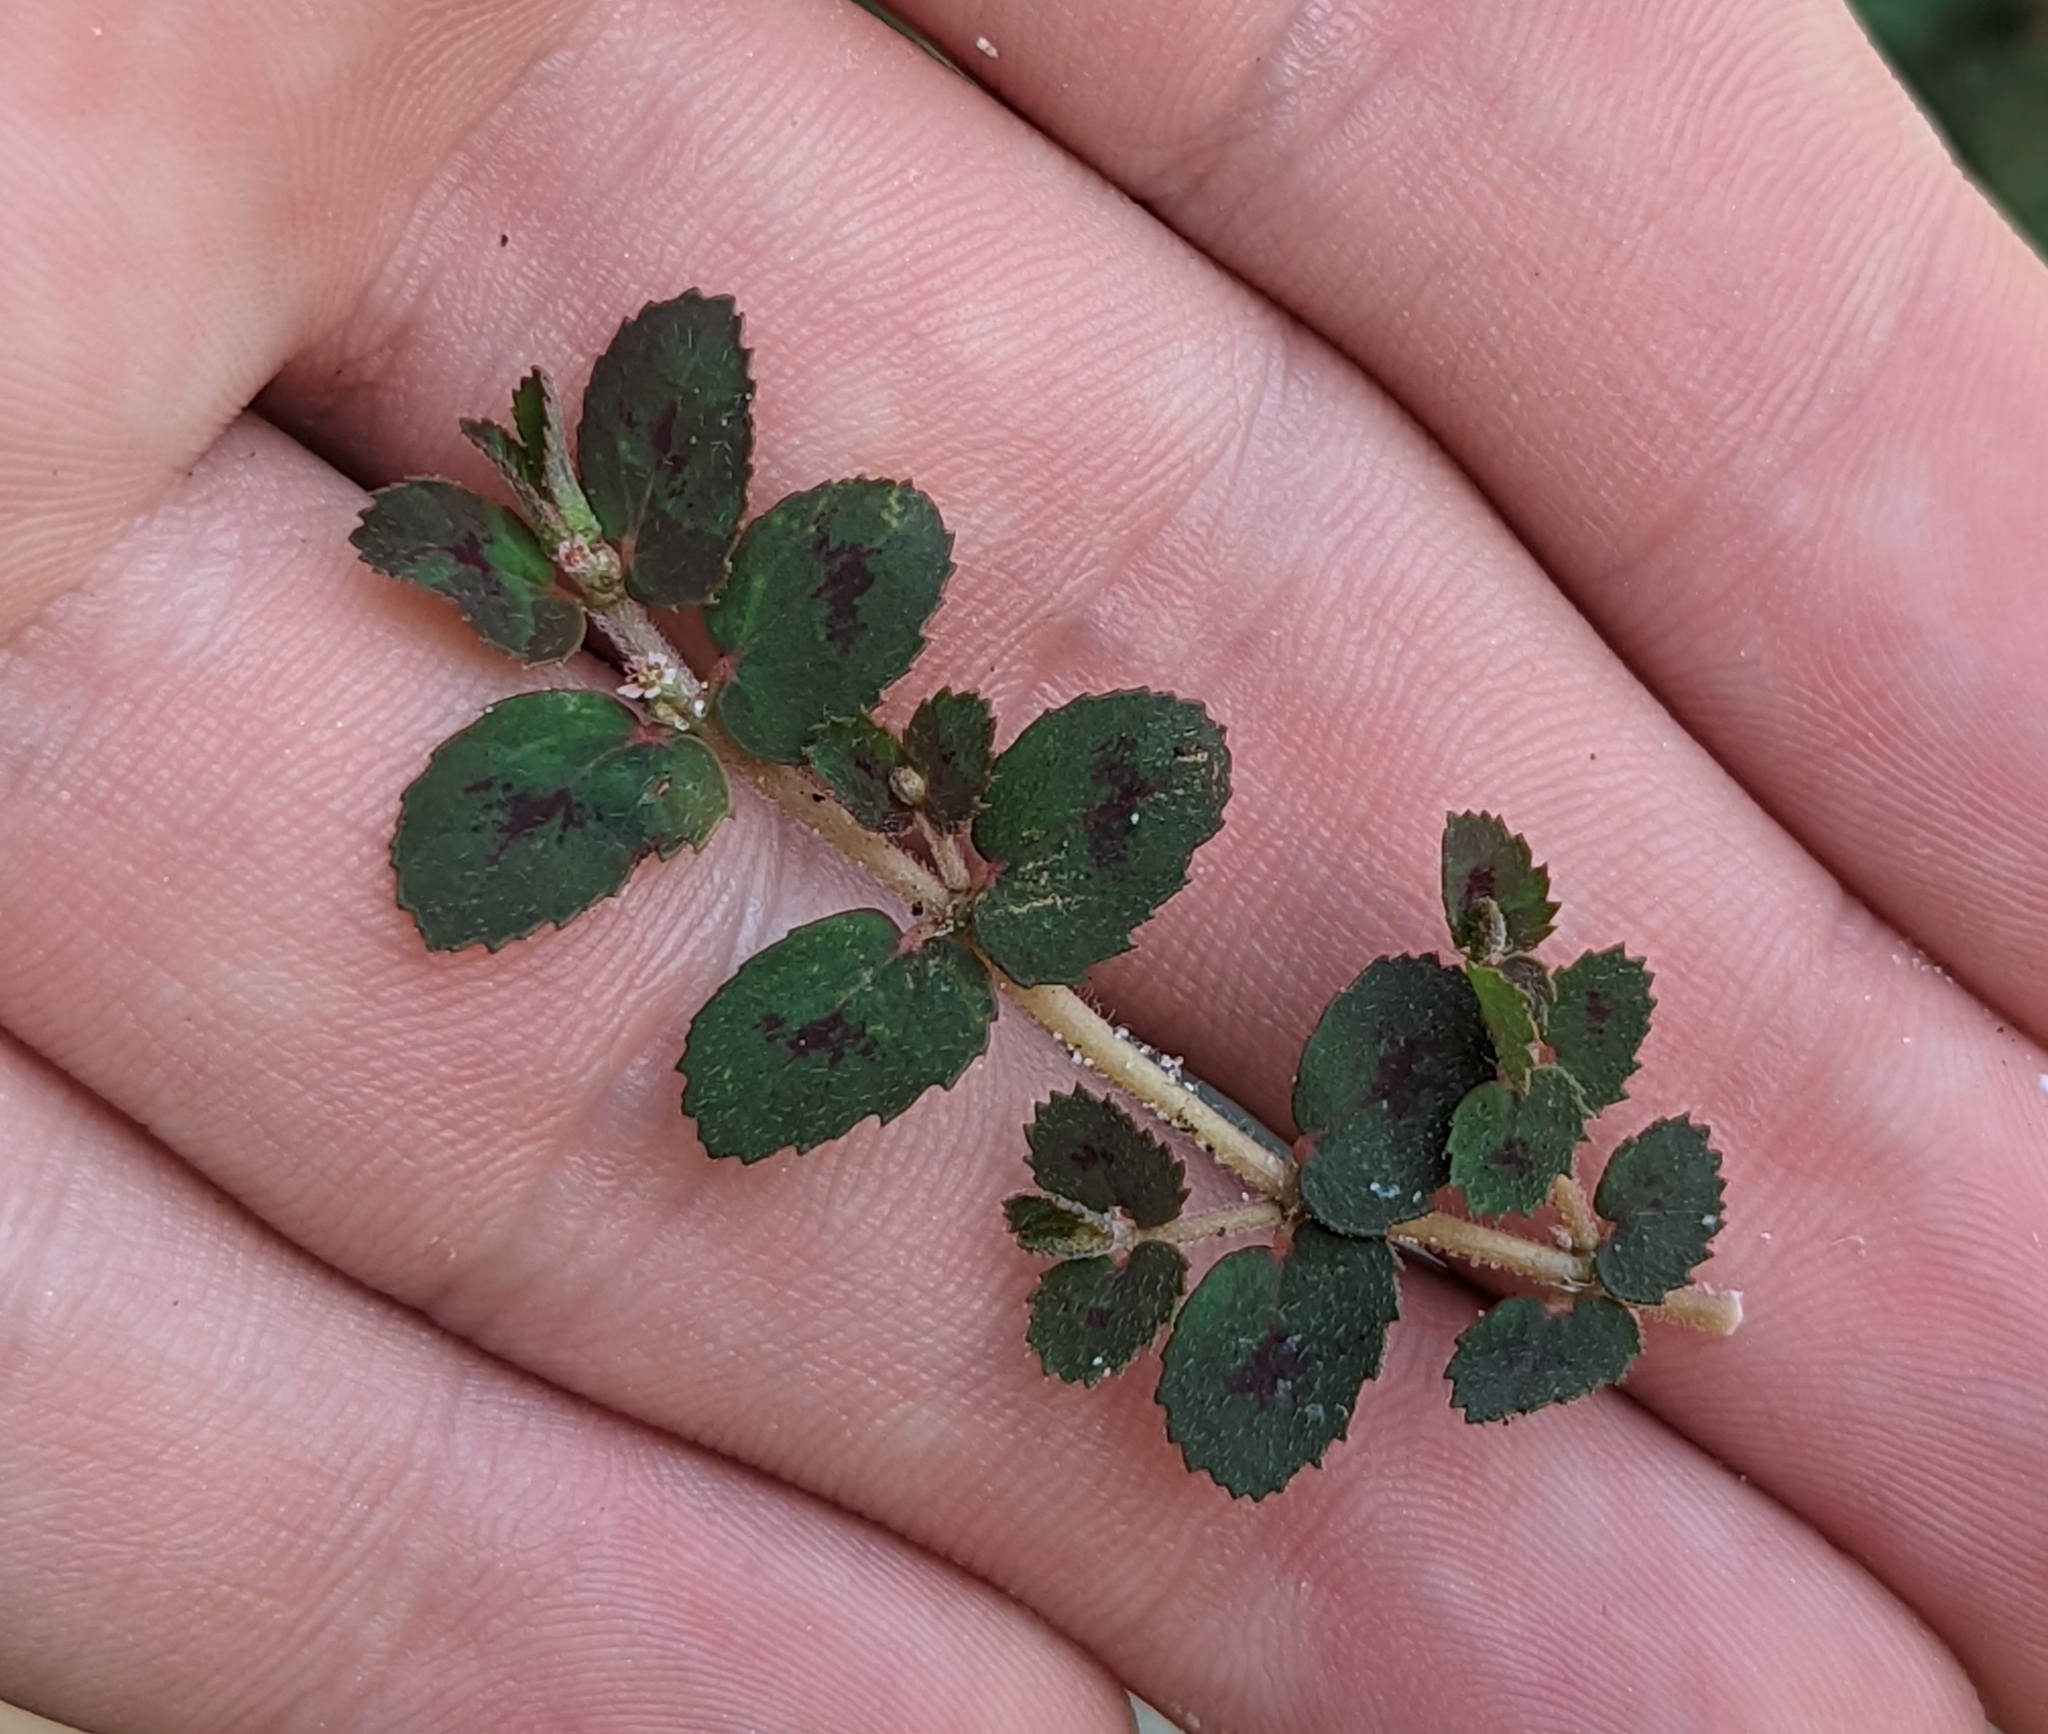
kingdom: Plantae
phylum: Tracheophyta
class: Magnoliopsida
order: Malpighiales
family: Euphorbiaceae
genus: Euphorbia
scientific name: Euphorbia thymifolia
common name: Gulf sandmat
